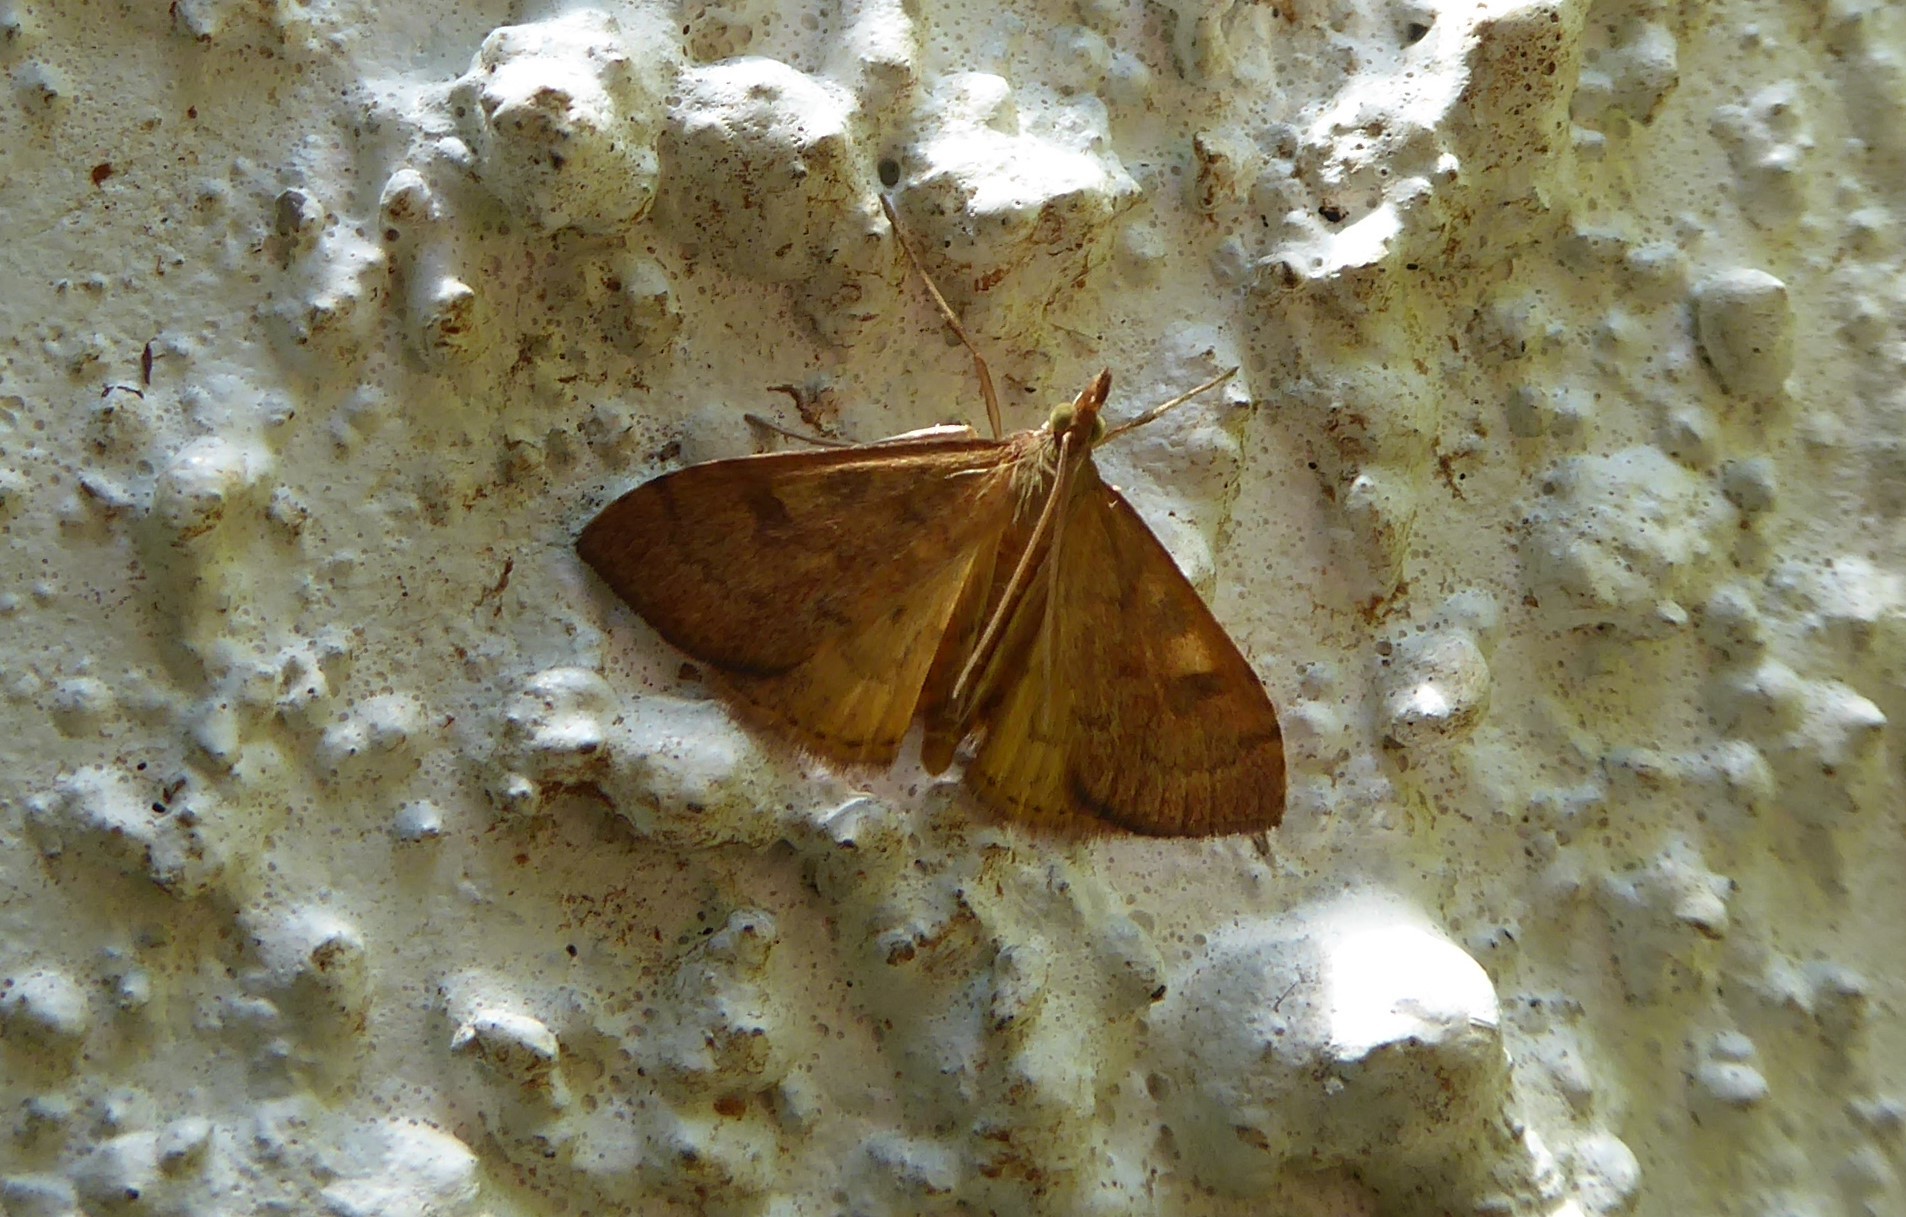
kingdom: Animalia
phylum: Arthropoda
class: Insecta
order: Lepidoptera
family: Crambidae
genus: Udea
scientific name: Udea Mnesictena flavidalis
